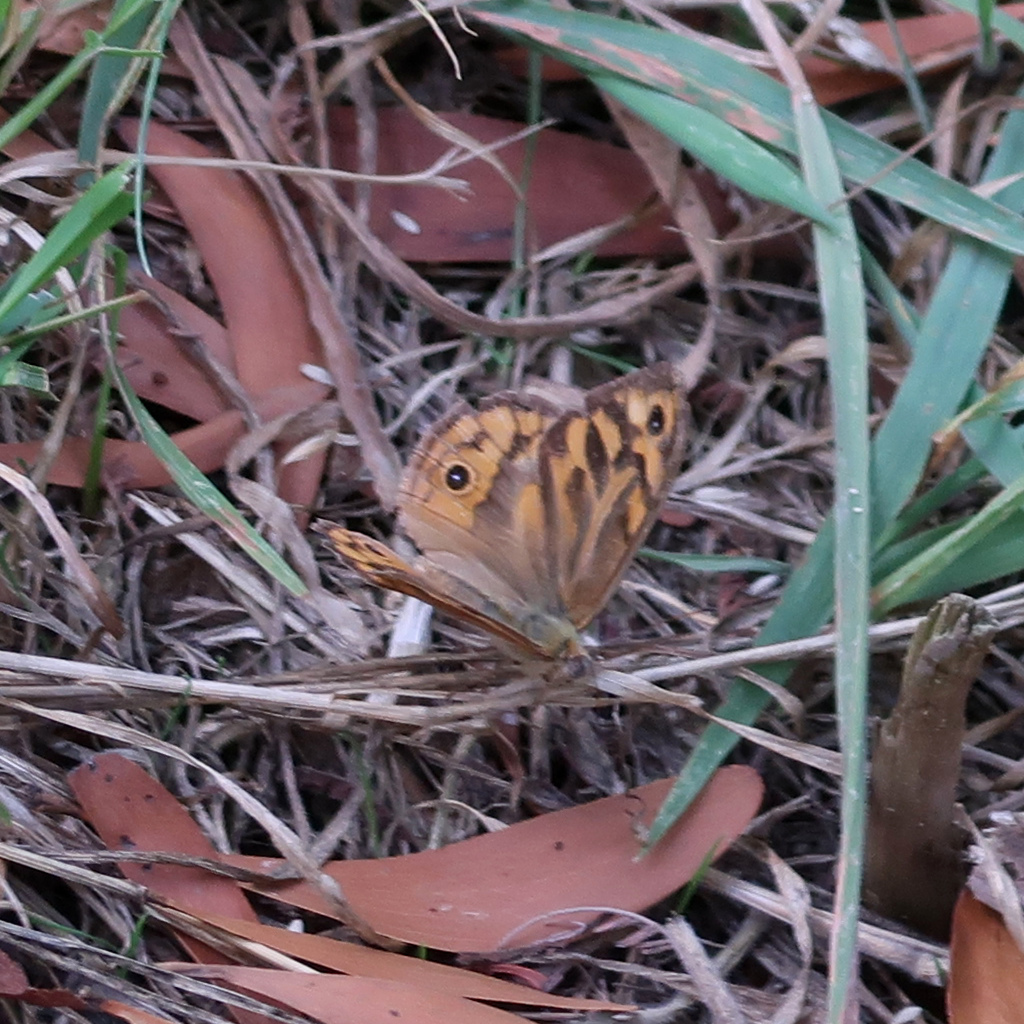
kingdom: Animalia
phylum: Arthropoda
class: Insecta
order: Lepidoptera
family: Nymphalidae
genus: Heteronympha
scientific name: Heteronympha merope
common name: Common brown
